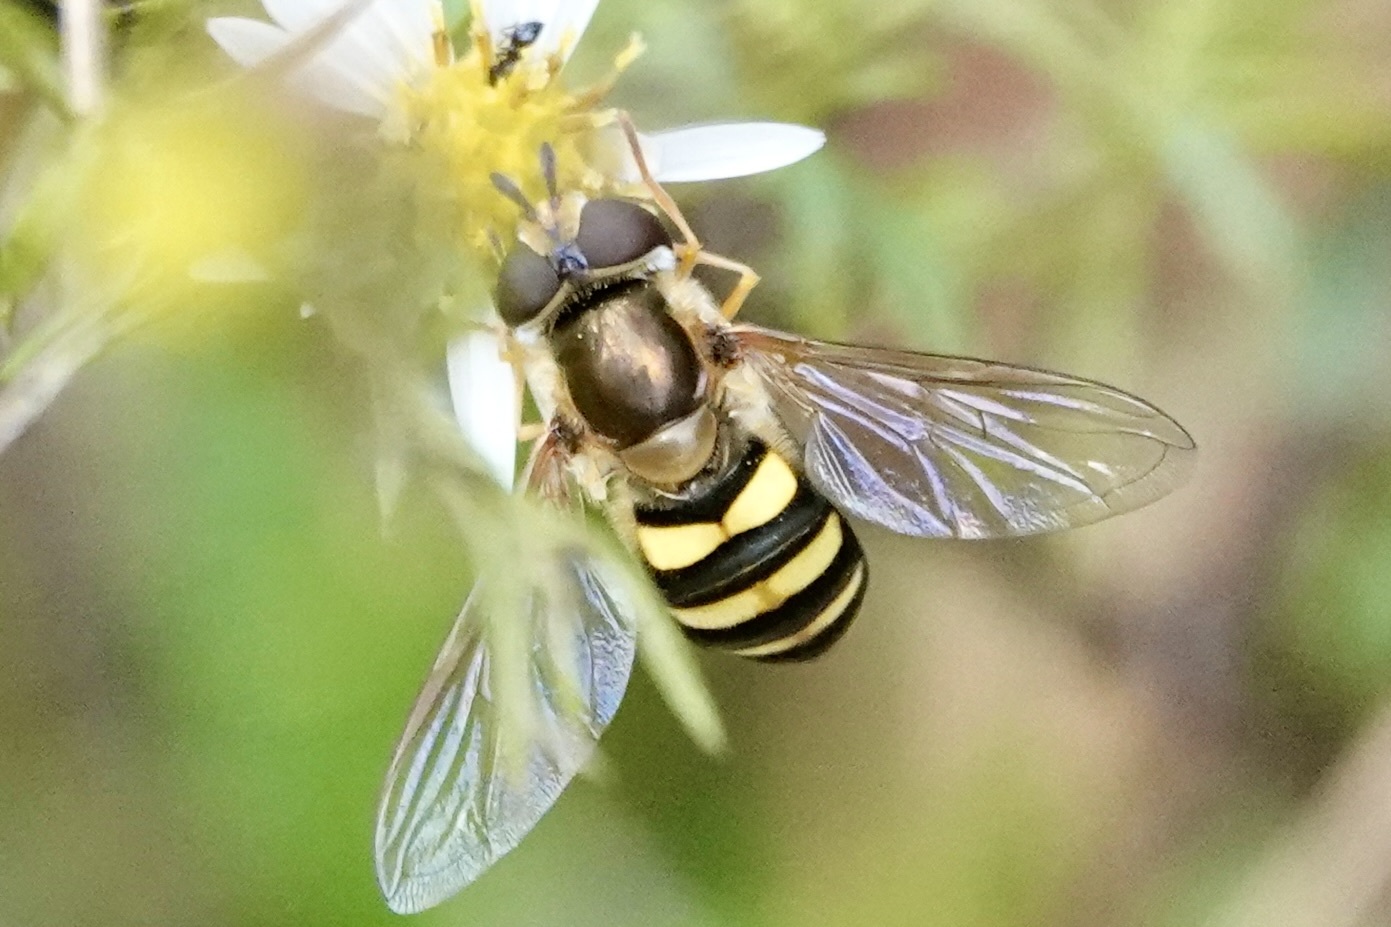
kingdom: Animalia
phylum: Arthropoda
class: Insecta
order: Diptera
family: Syrphidae
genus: Eupeodes
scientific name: Eupeodes
